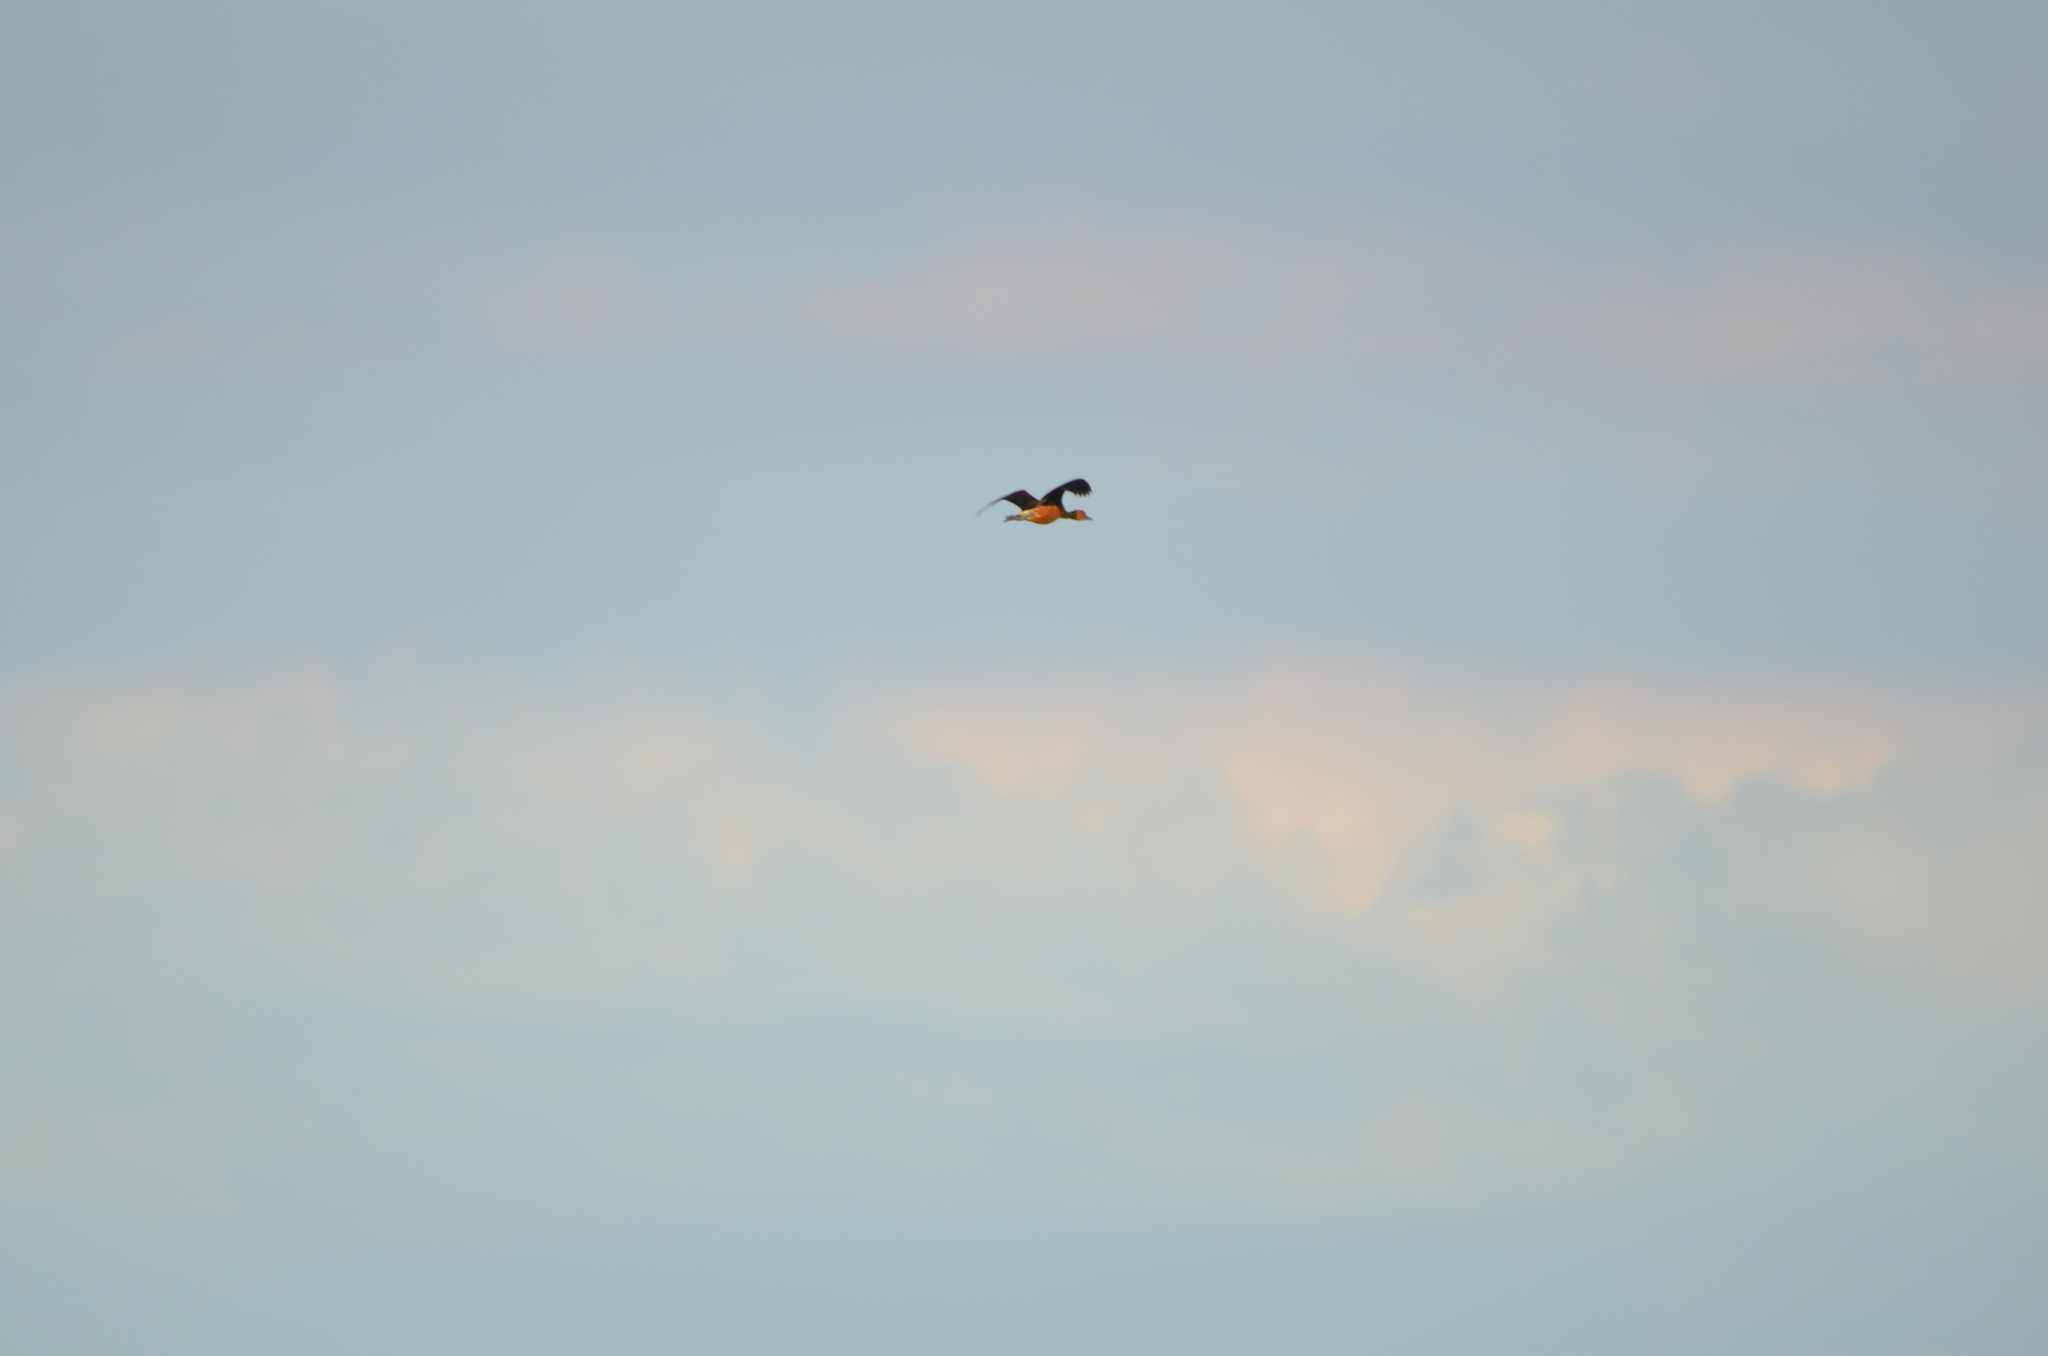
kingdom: Animalia
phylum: Chordata
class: Aves
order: Anseriformes
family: Anatidae
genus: Dendrocygna
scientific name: Dendrocygna bicolor
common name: Fulvous whistling duck
